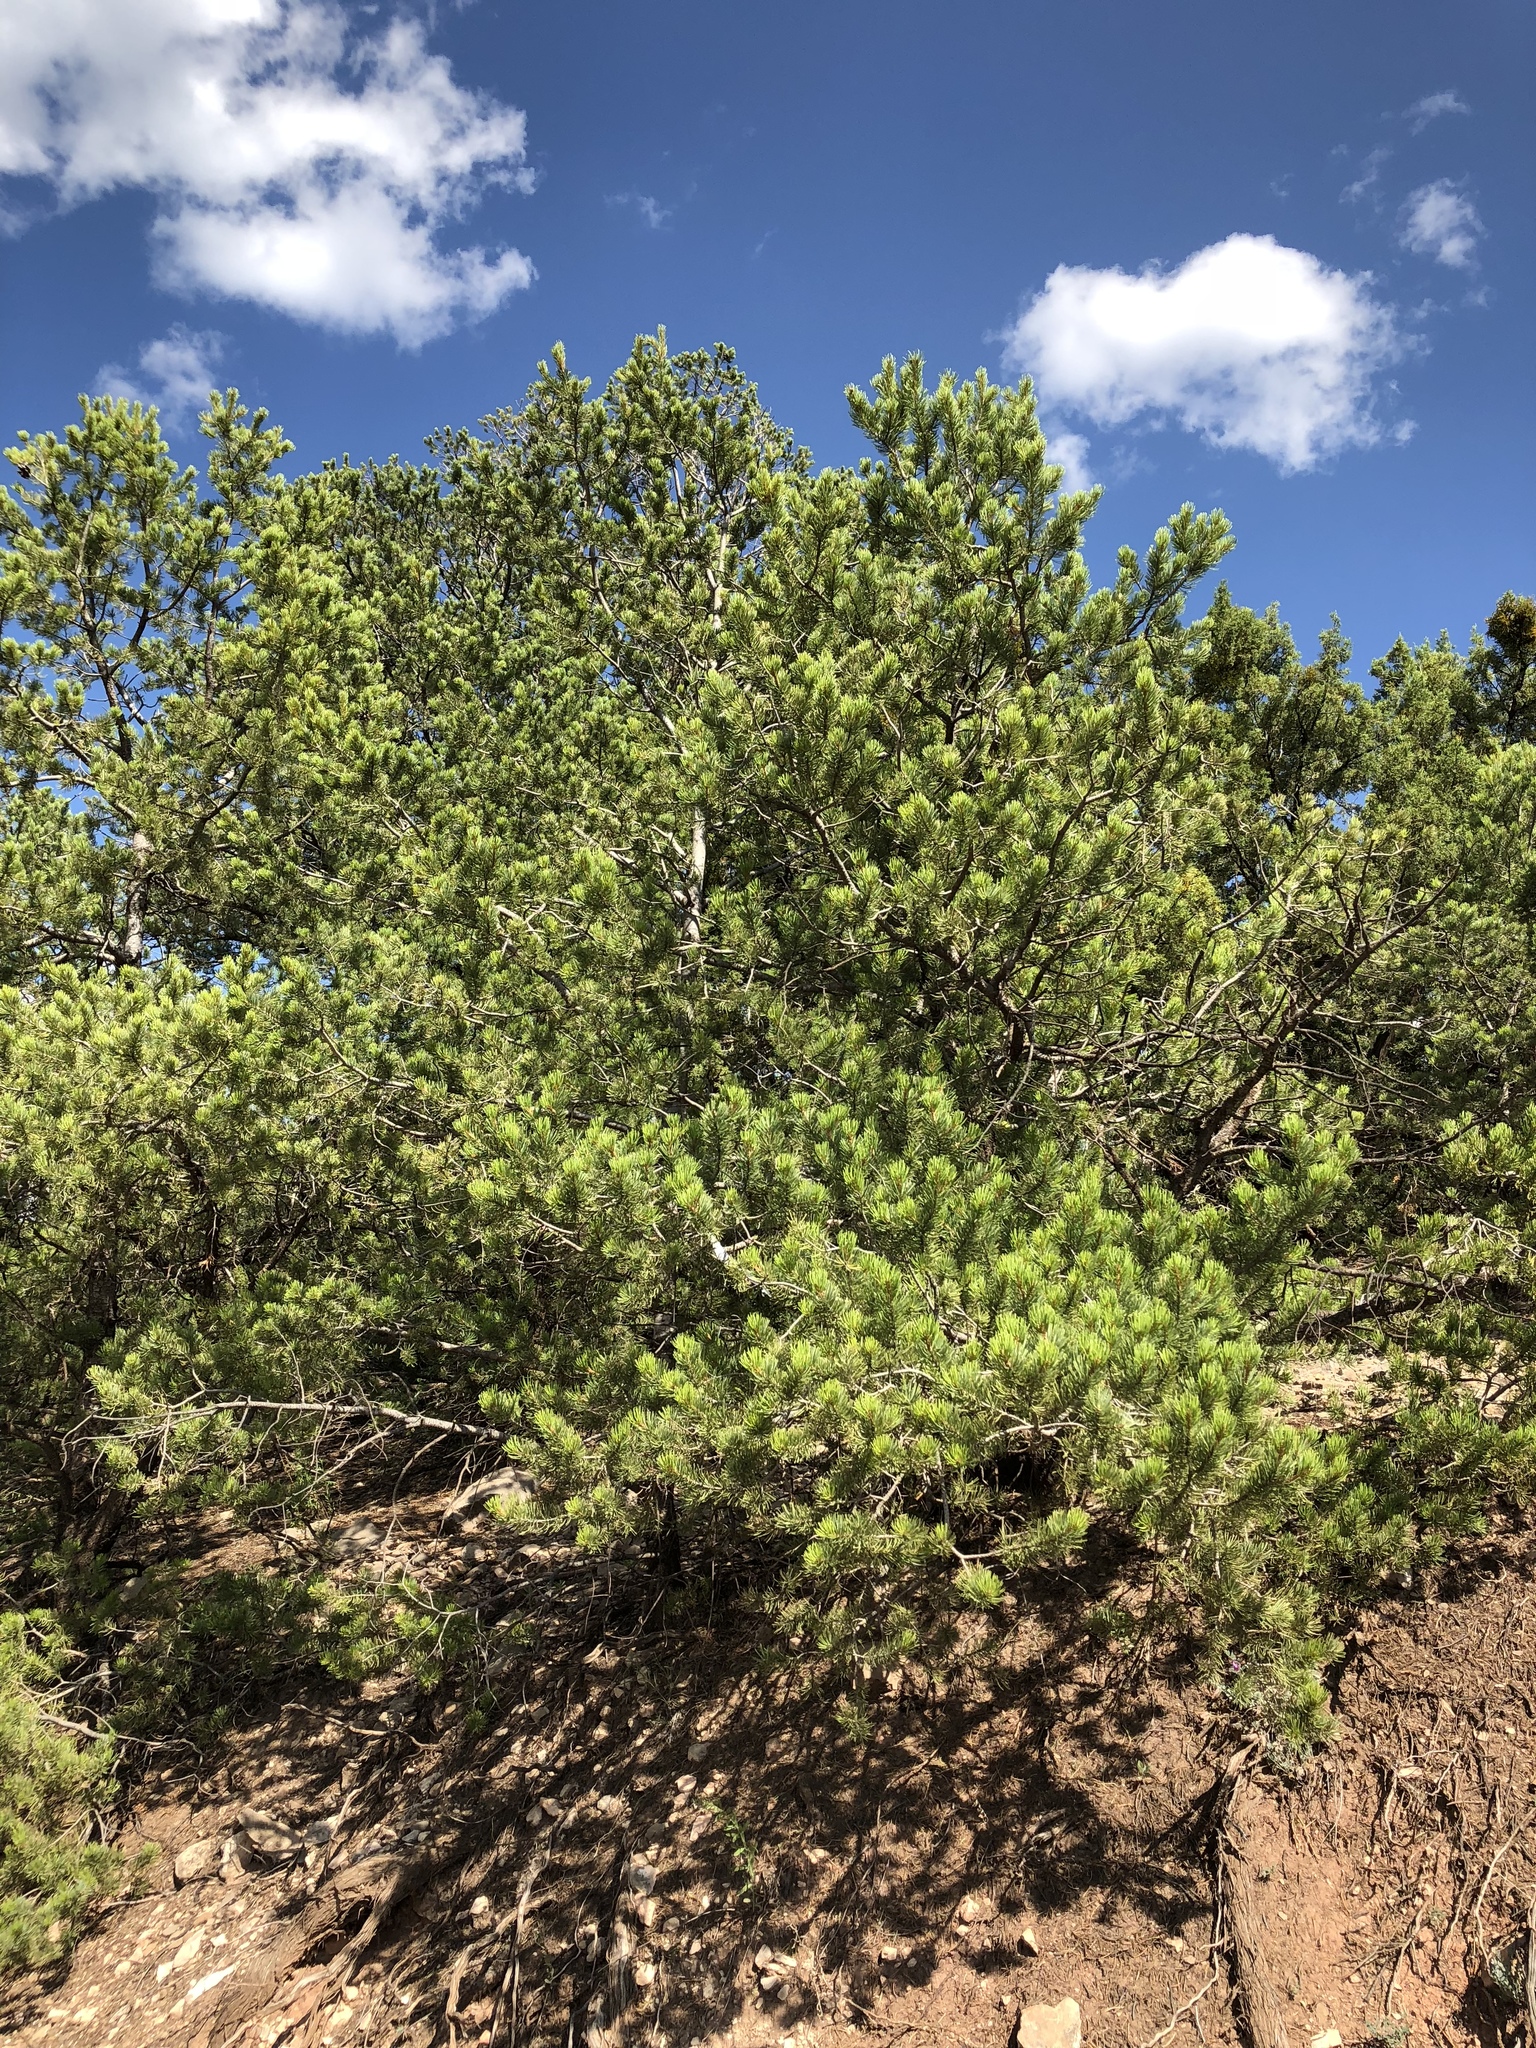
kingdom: Plantae
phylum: Tracheophyta
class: Pinopsida
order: Pinales
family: Pinaceae
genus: Pinus
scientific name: Pinus edulis
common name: Colorado pinyon
